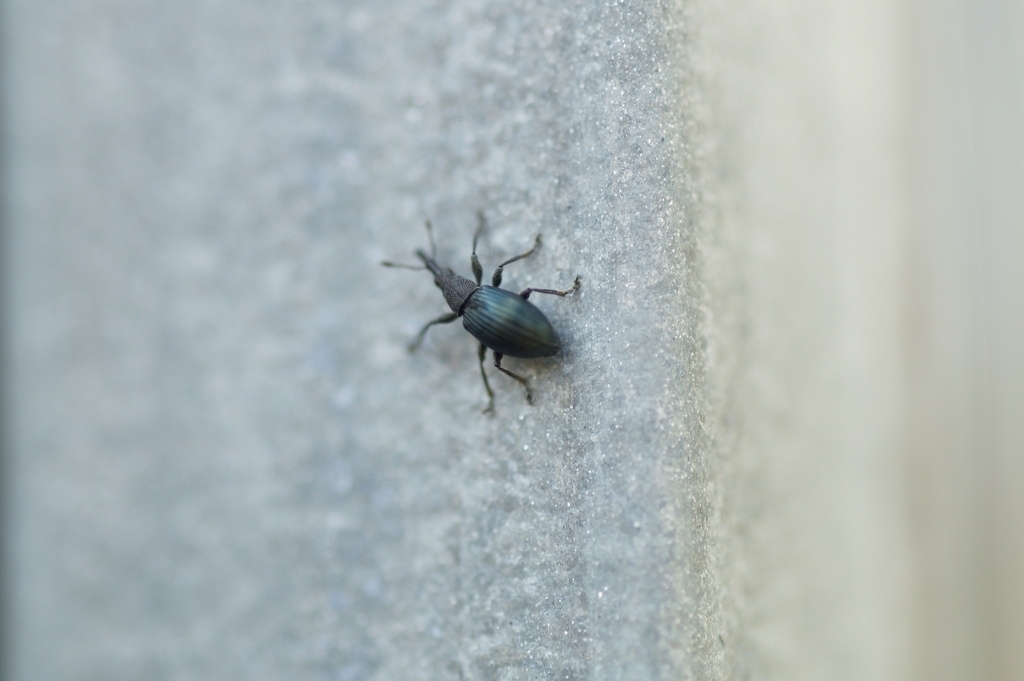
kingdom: Animalia
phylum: Arthropoda
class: Insecta
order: Coleoptera
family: Apionidae
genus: Aspidapion
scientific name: Aspidapion validum
